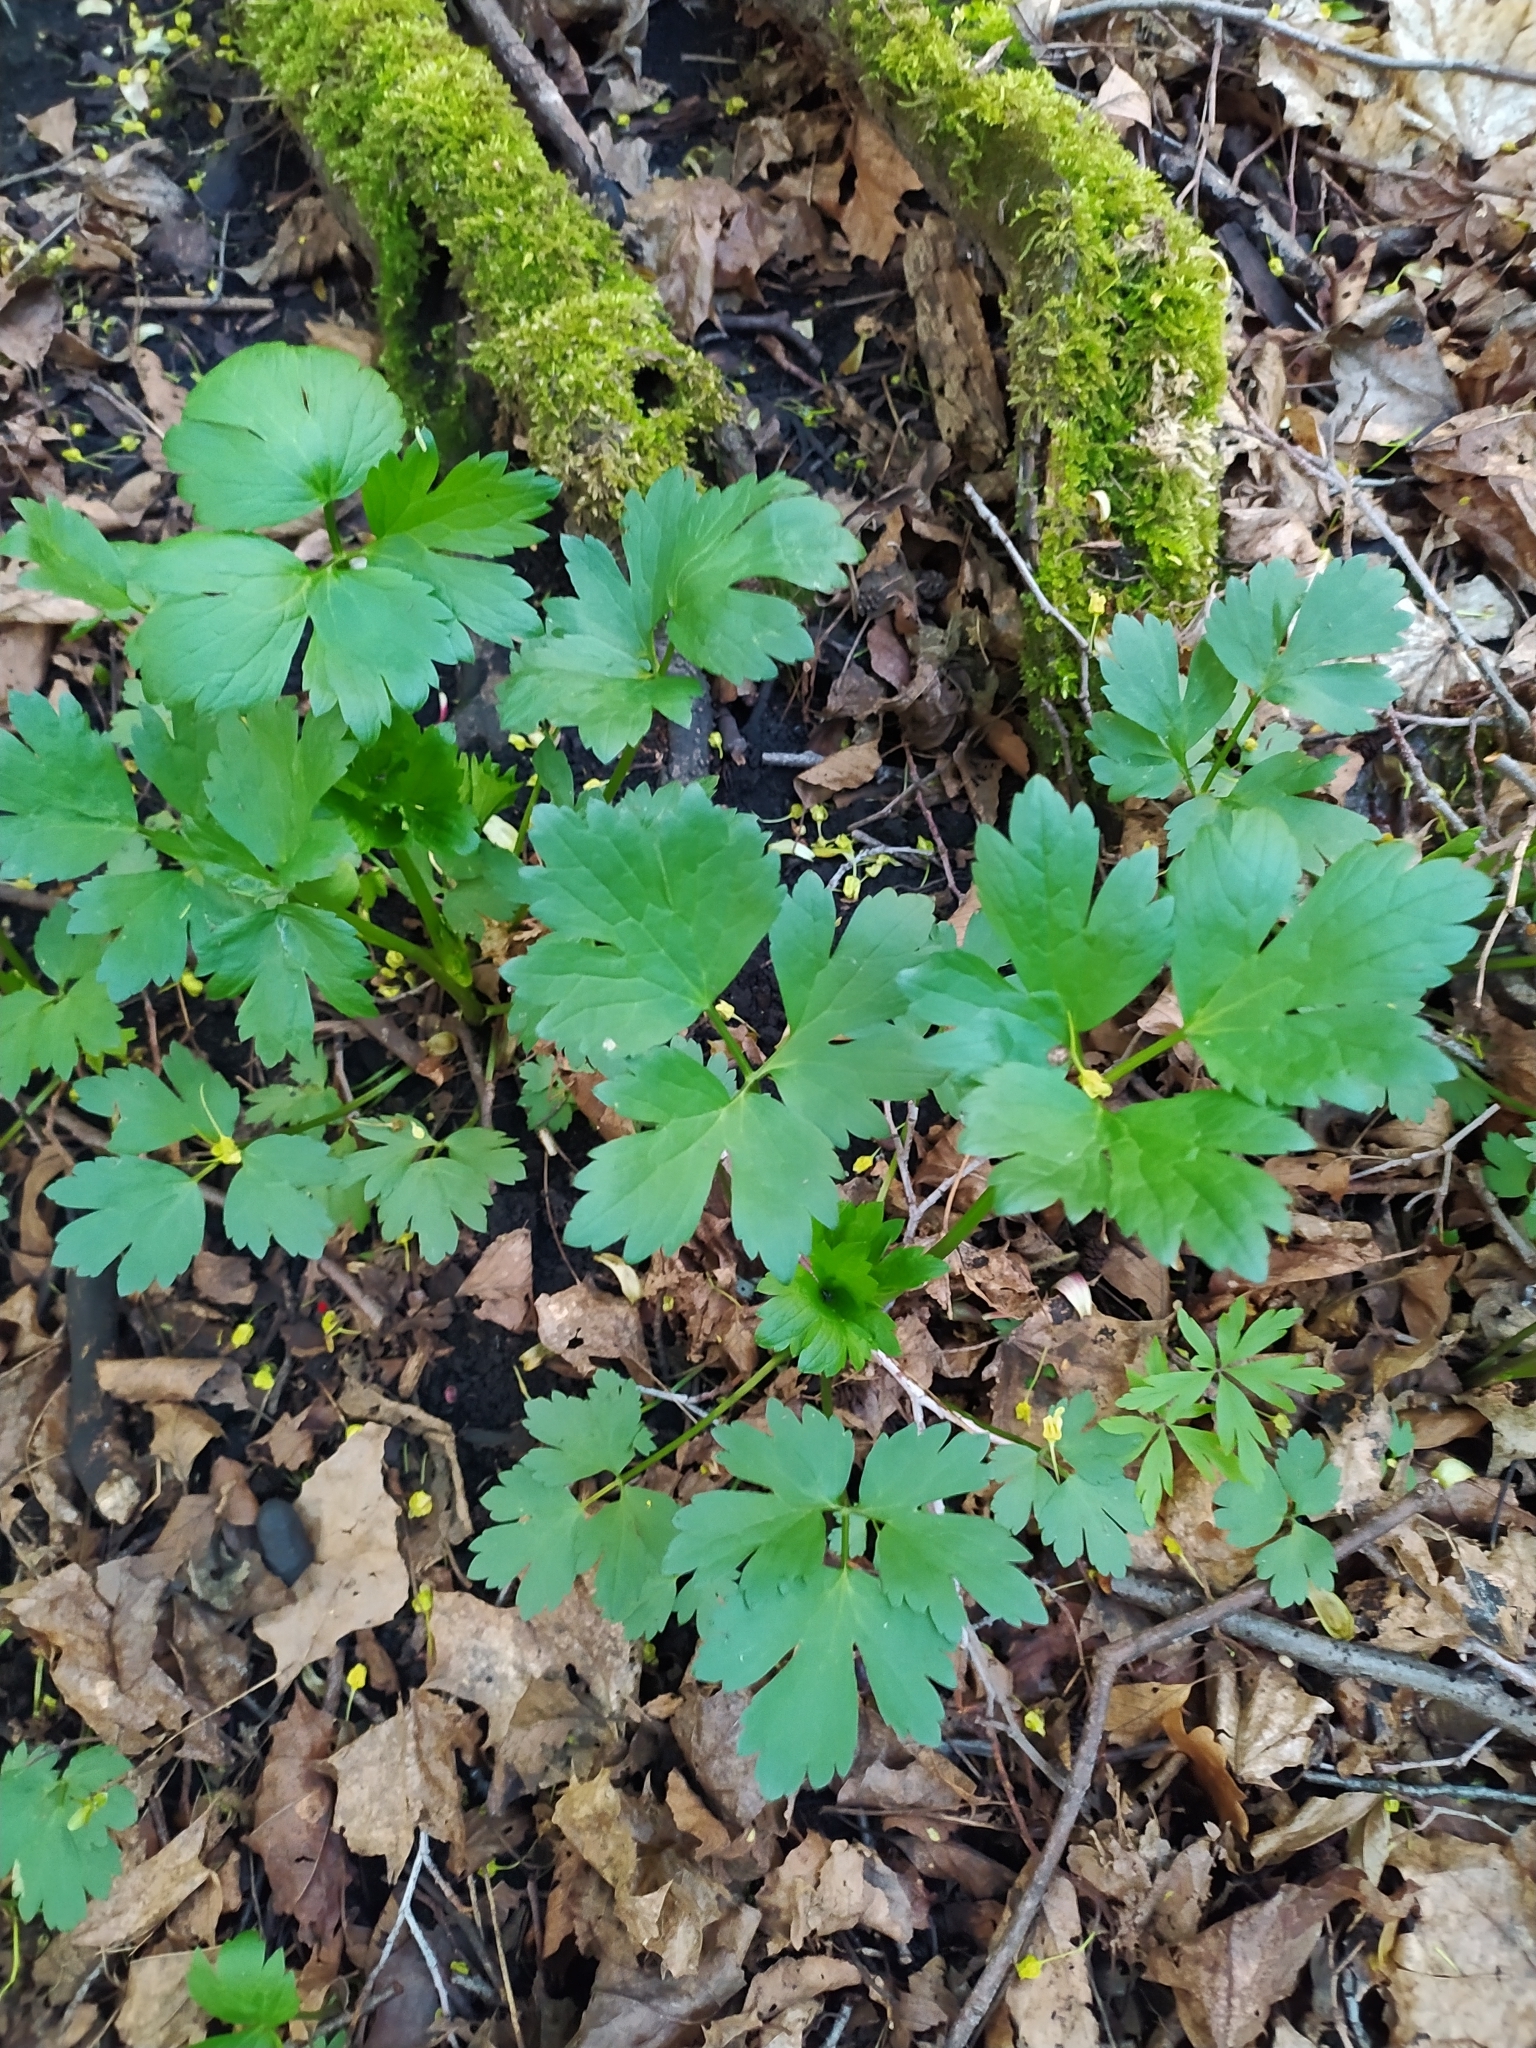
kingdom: Plantae
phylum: Tracheophyta
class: Magnoliopsida
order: Ranunculales
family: Ranunculaceae
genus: Ranunculus
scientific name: Ranunculus repens
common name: Creeping buttercup
